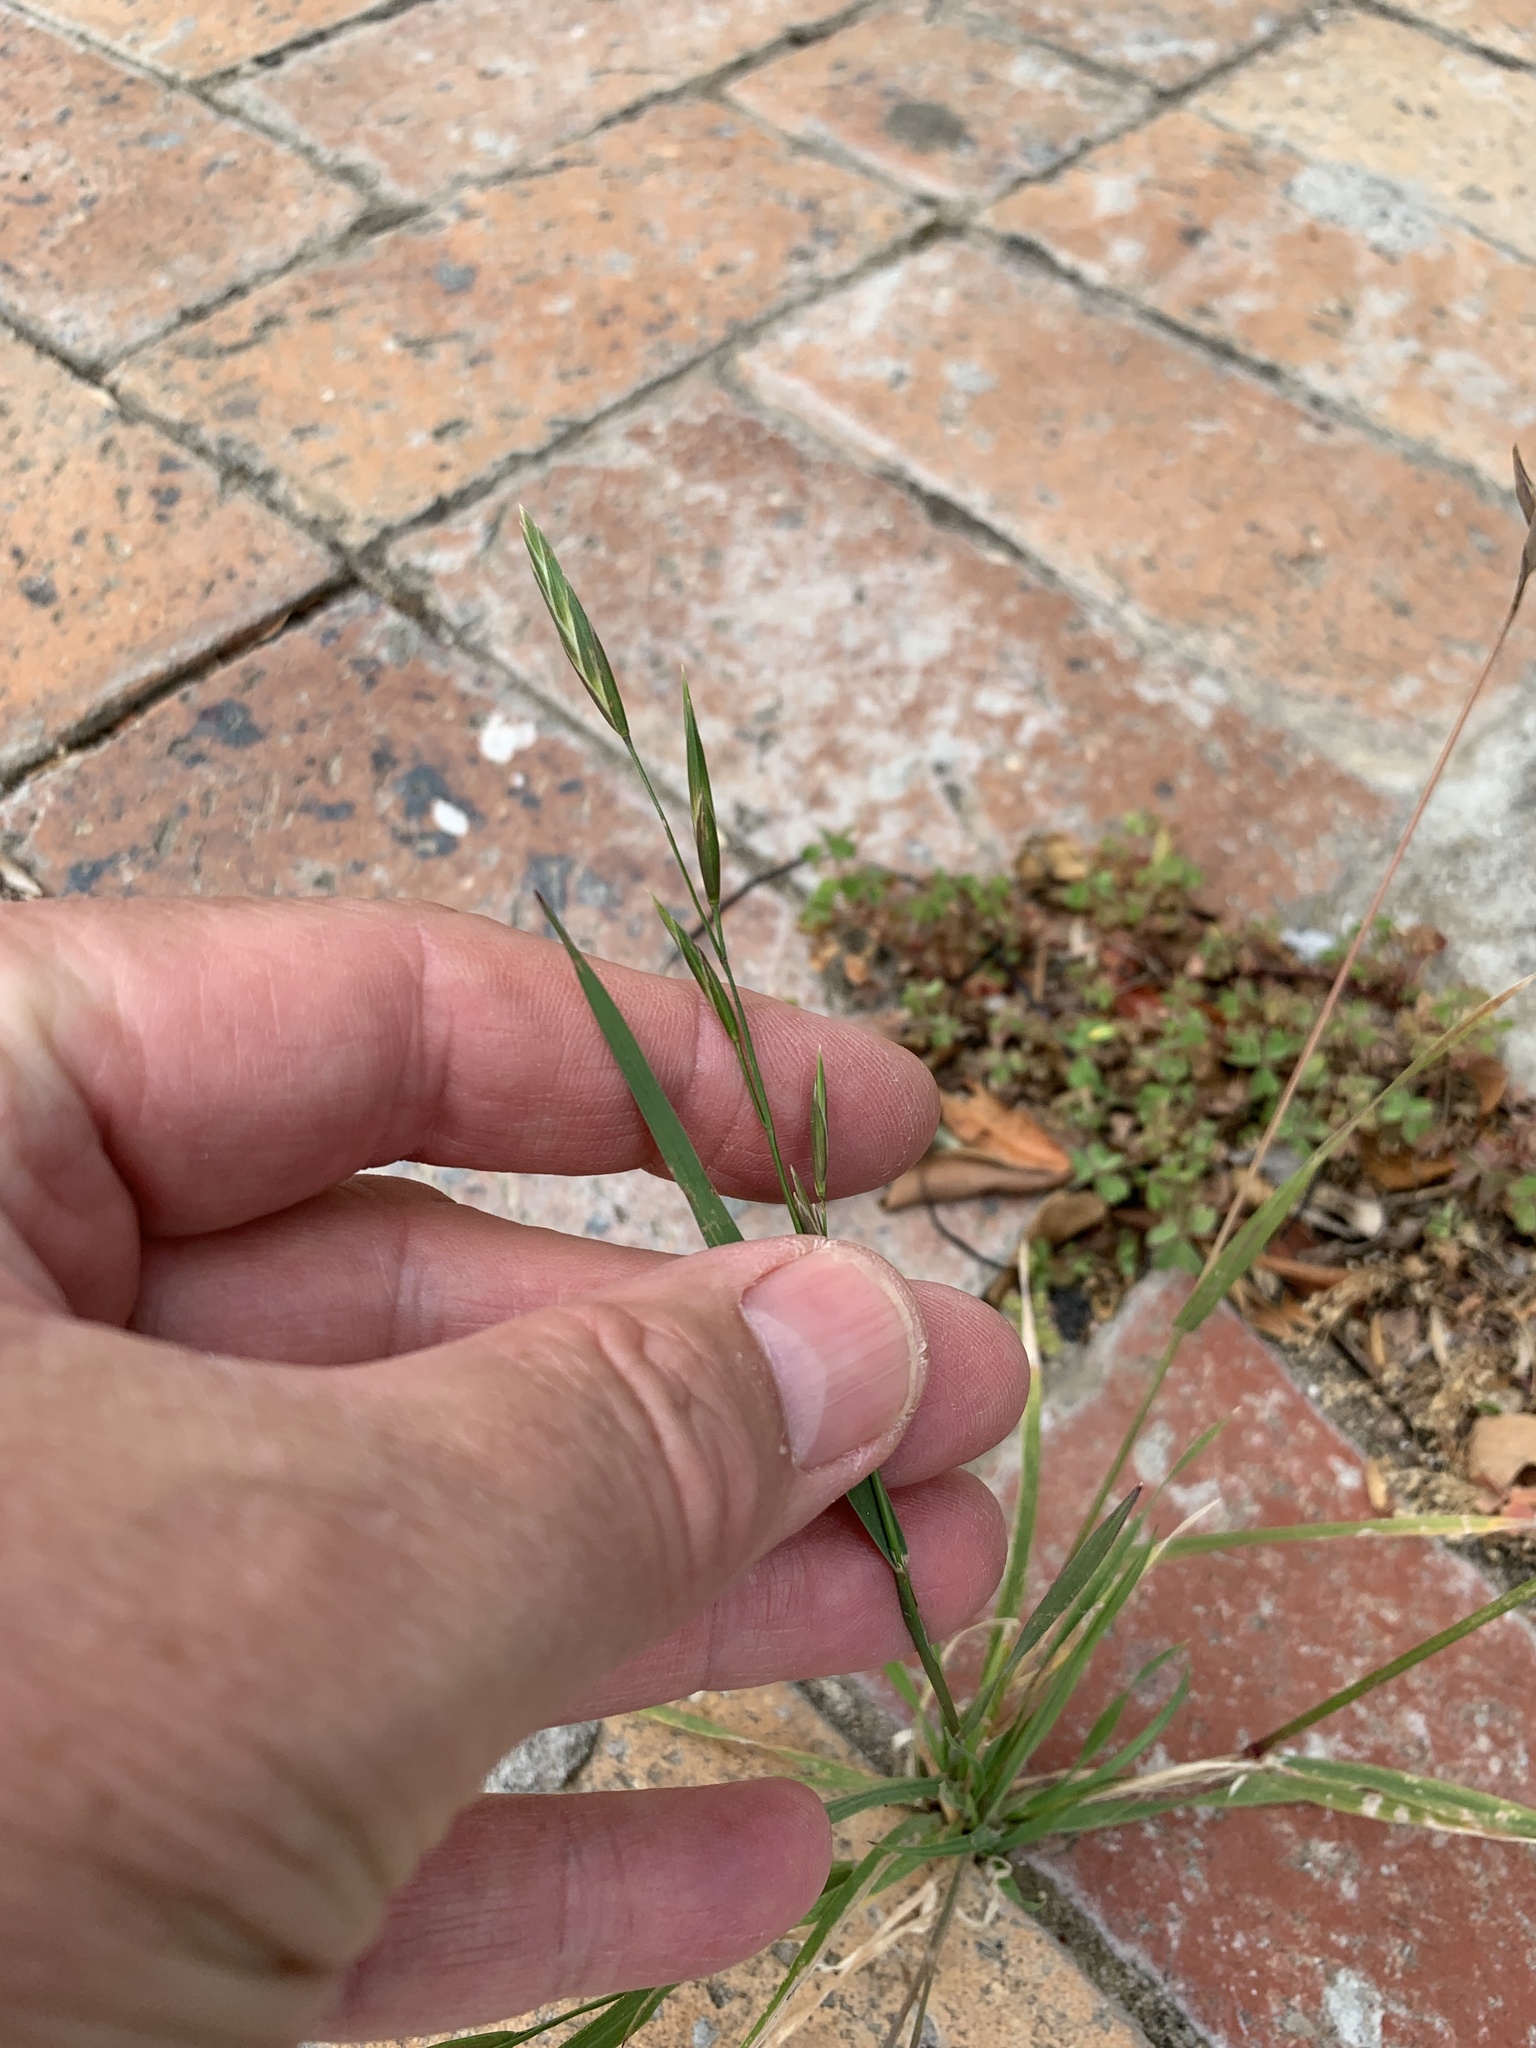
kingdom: Plantae
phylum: Tracheophyta
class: Liliopsida
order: Poales
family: Poaceae
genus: Bromus
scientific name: Bromus catharticus
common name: Rescuegrass
